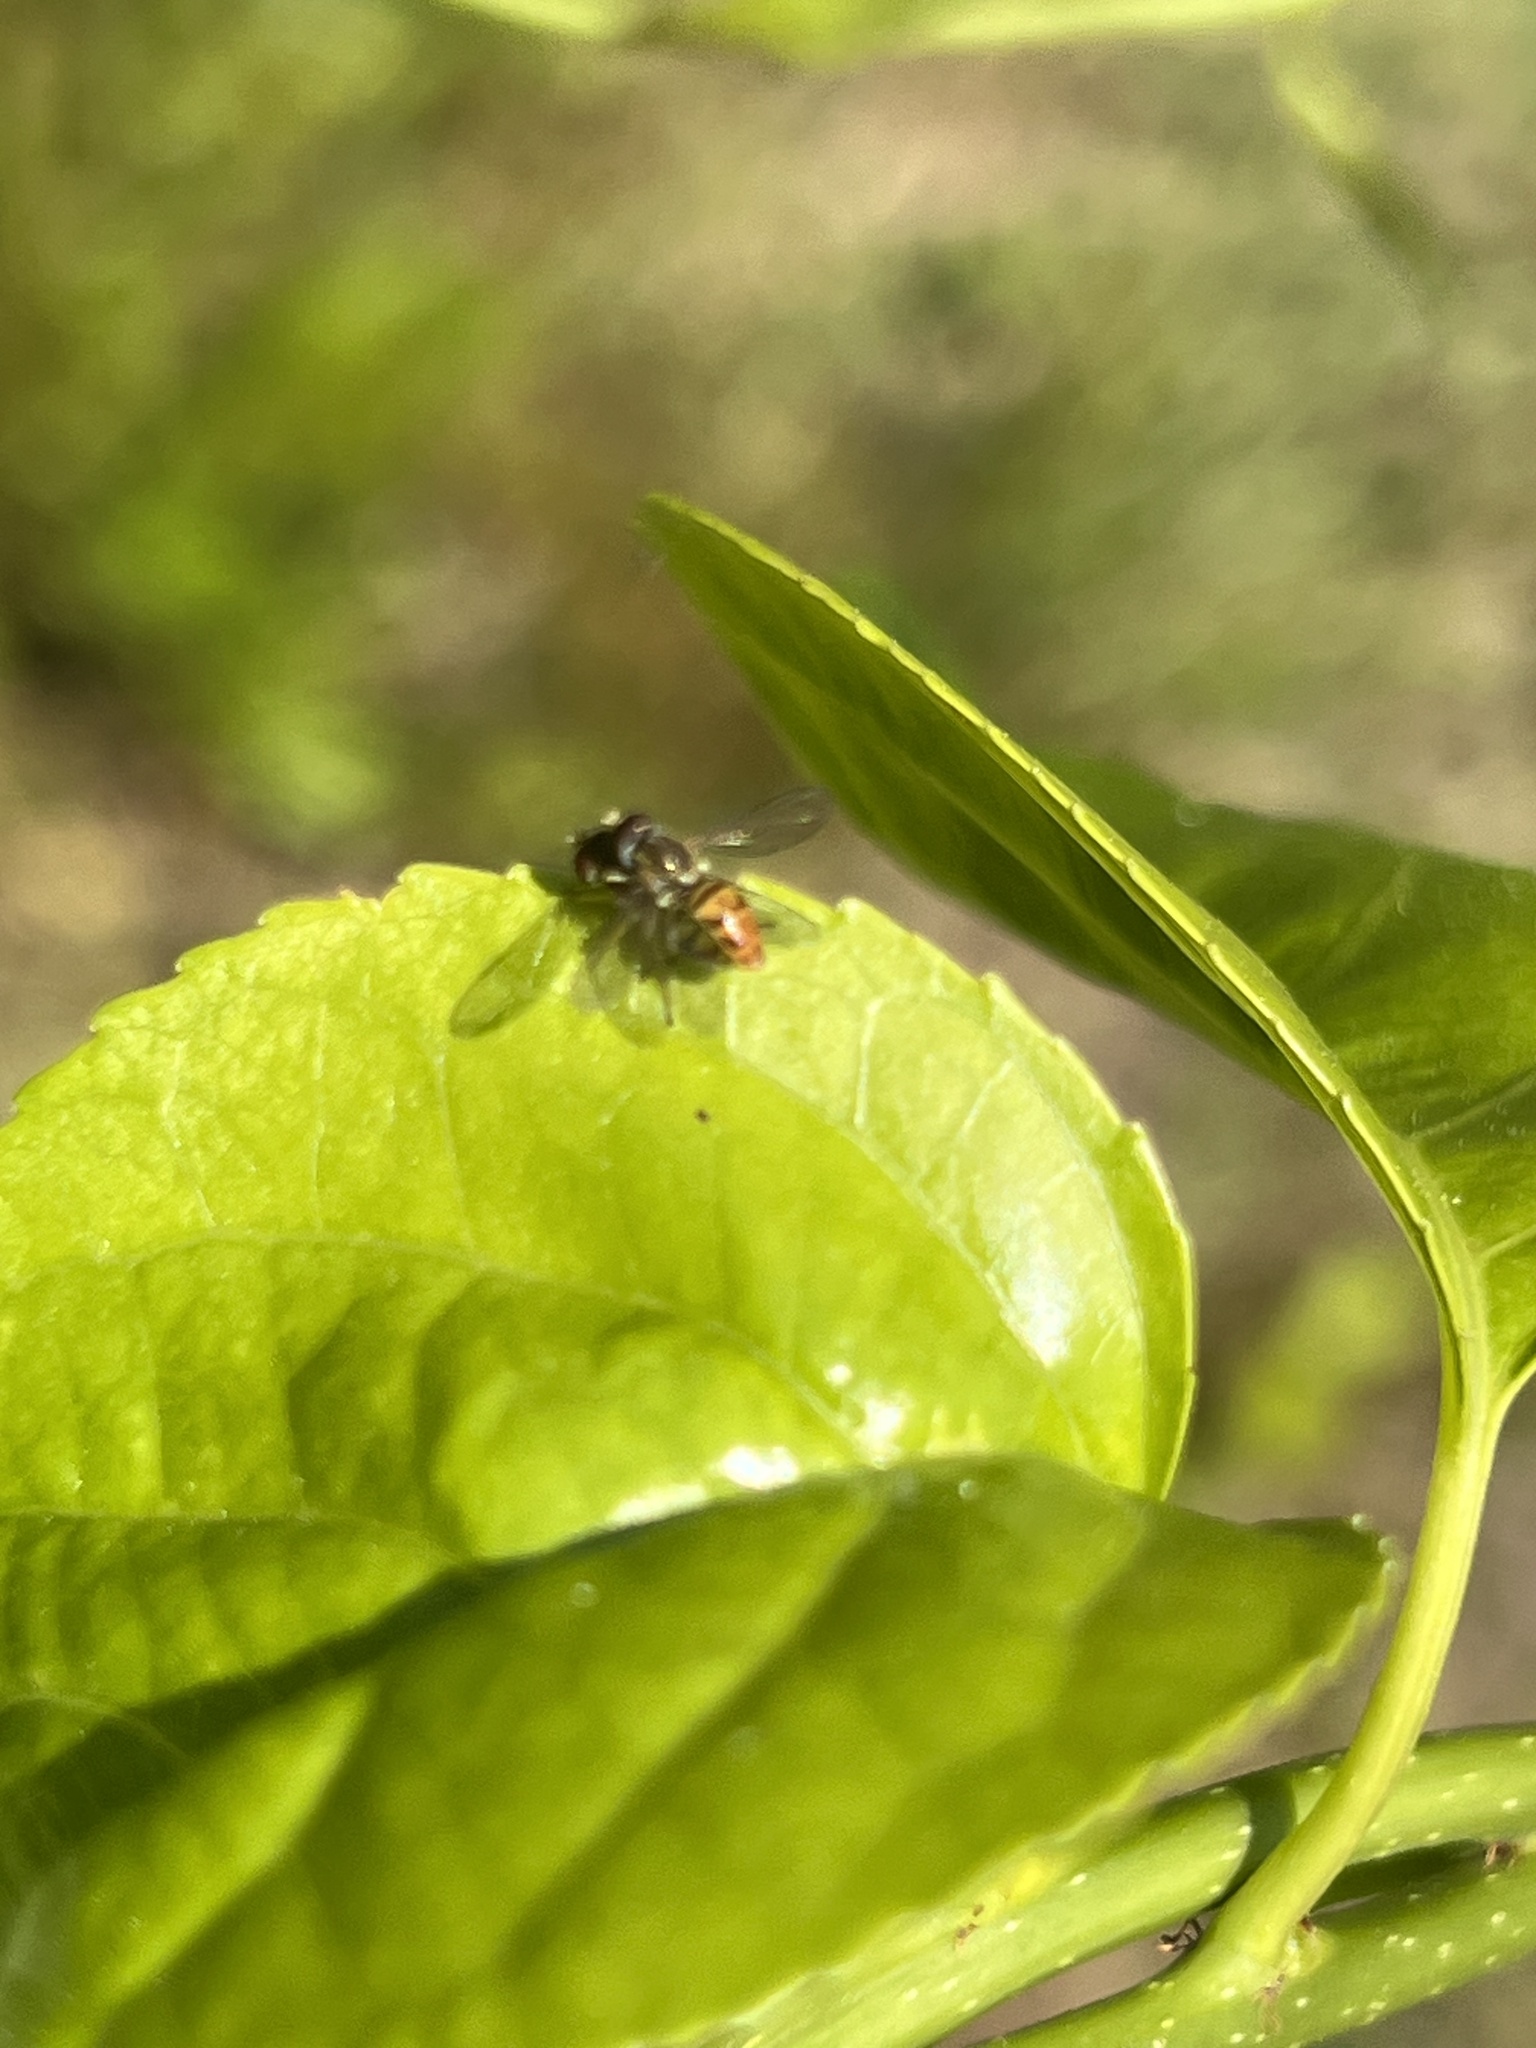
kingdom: Animalia
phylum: Arthropoda
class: Insecta
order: Diptera
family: Syrphidae
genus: Toxomerus
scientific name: Toxomerus marginatus
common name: Syrphid fly
